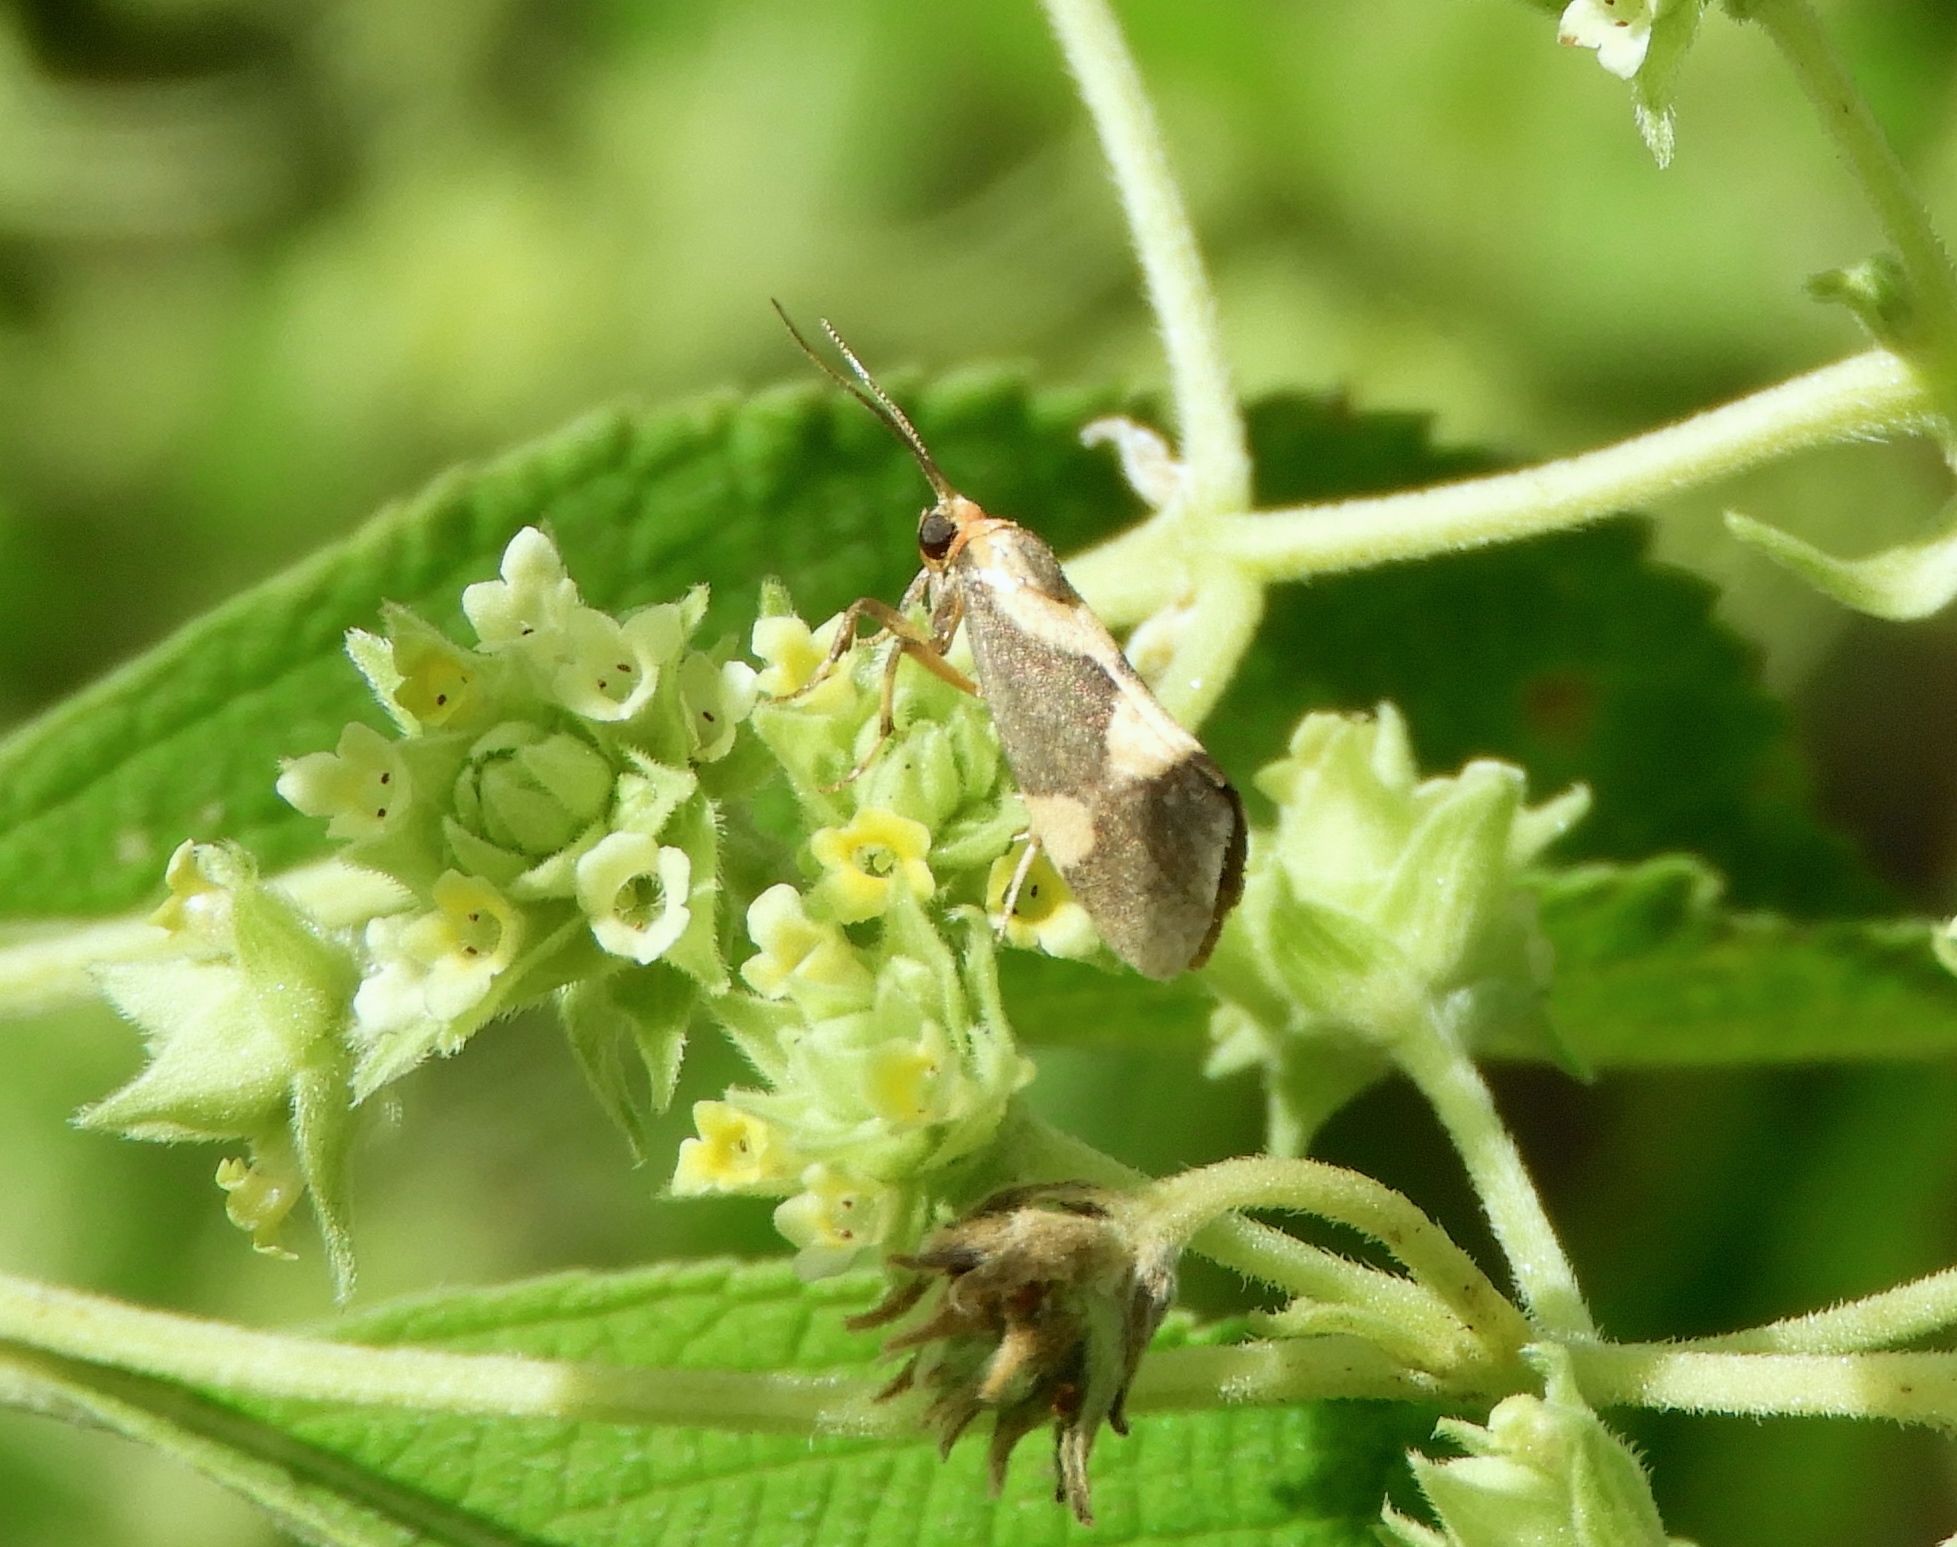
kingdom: Animalia
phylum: Arthropoda
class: Insecta
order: Lepidoptera
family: Erebidae
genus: Cisthene
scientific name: Cisthene
